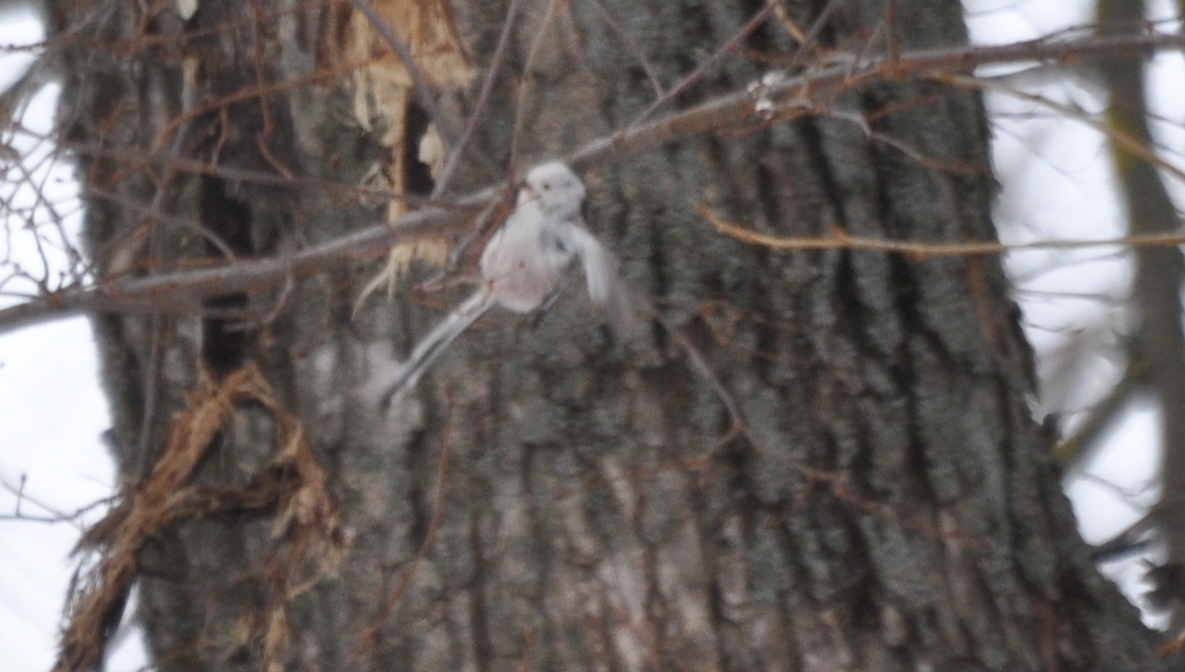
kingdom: Animalia
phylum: Chordata
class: Aves
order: Passeriformes
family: Aegithalidae
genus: Aegithalos
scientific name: Aegithalos caudatus
